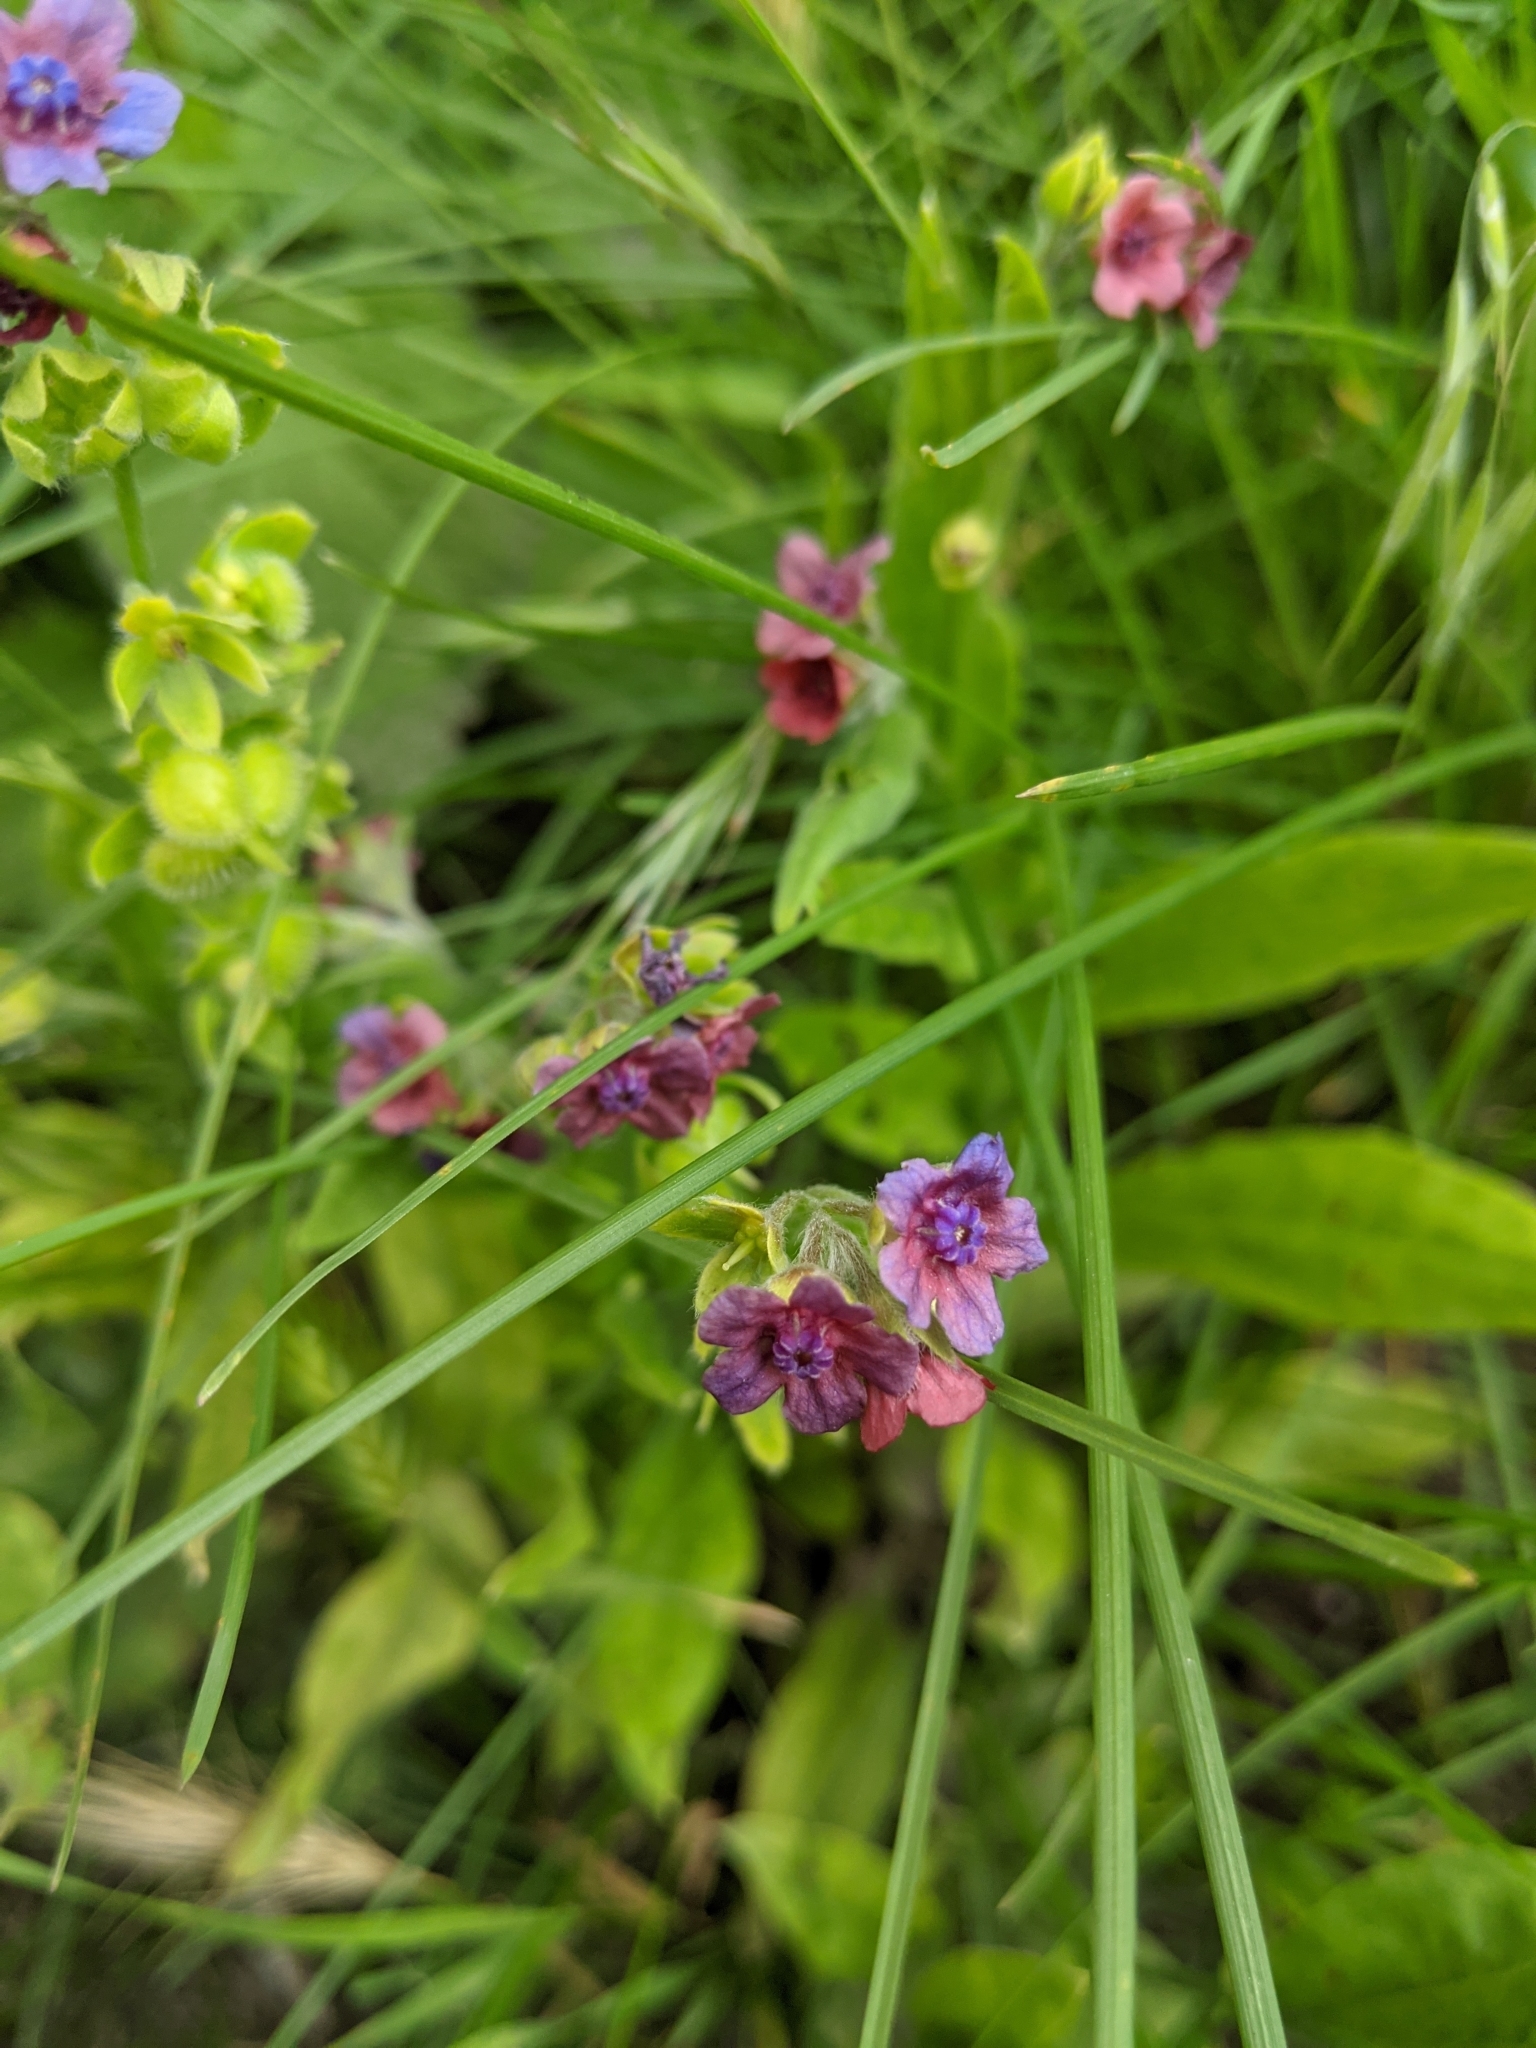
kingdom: Plantae
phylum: Tracheophyta
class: Magnoliopsida
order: Boraginales
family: Boraginaceae
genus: Cynoglossum
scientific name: Cynoglossum officinale
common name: Hound's-tongue
